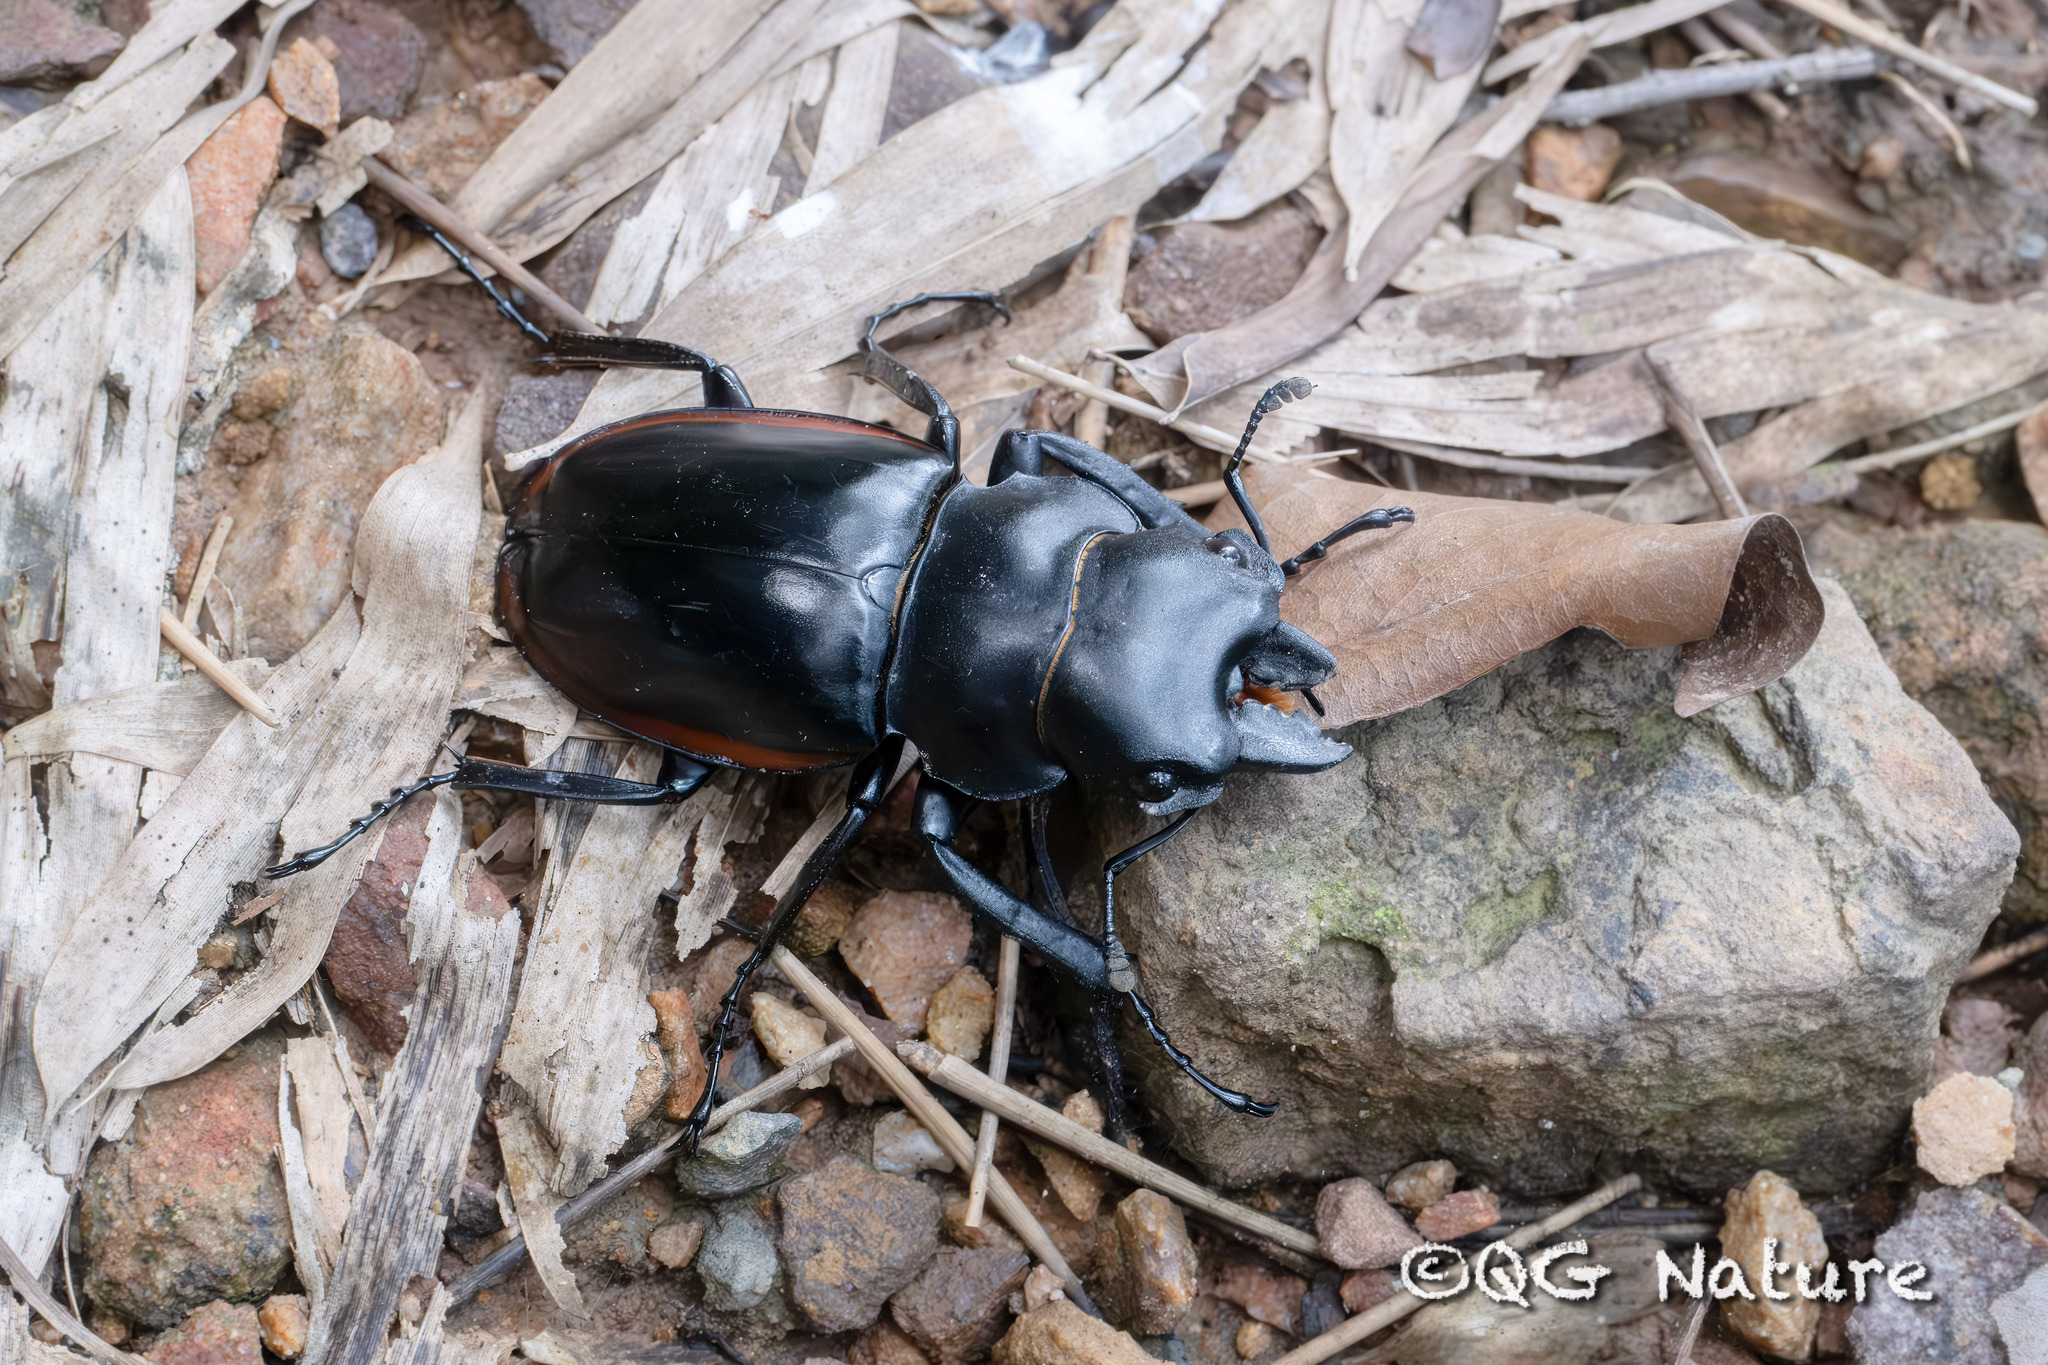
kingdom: Animalia
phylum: Arthropoda
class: Insecta
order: Coleoptera
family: Lucanidae
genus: Odontolabis
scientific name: Odontolabis cuvera
